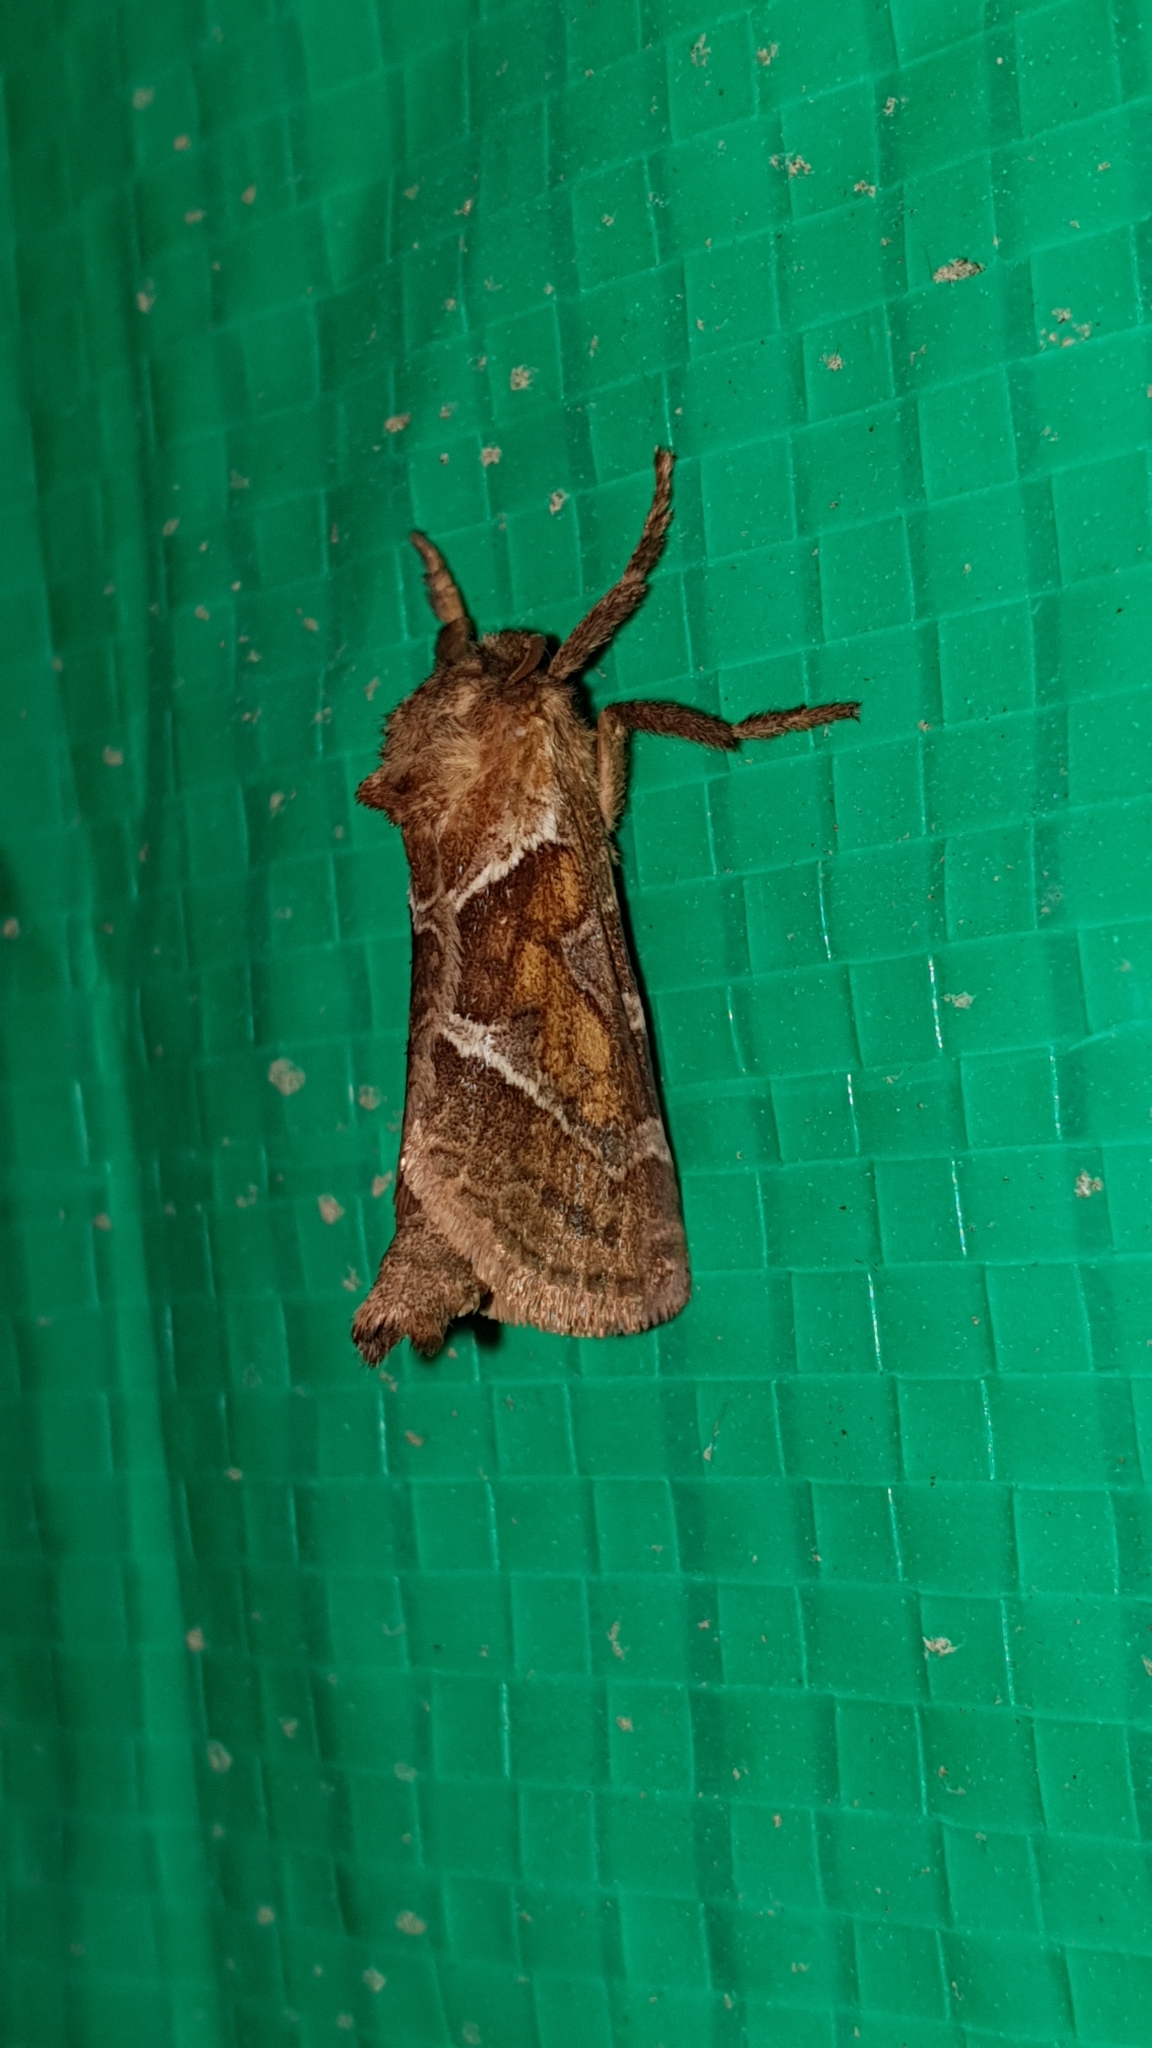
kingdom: Animalia
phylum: Arthropoda
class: Insecta
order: Lepidoptera
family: Hepialidae
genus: Triodia
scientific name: Triodia sylvina
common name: Orange swift
